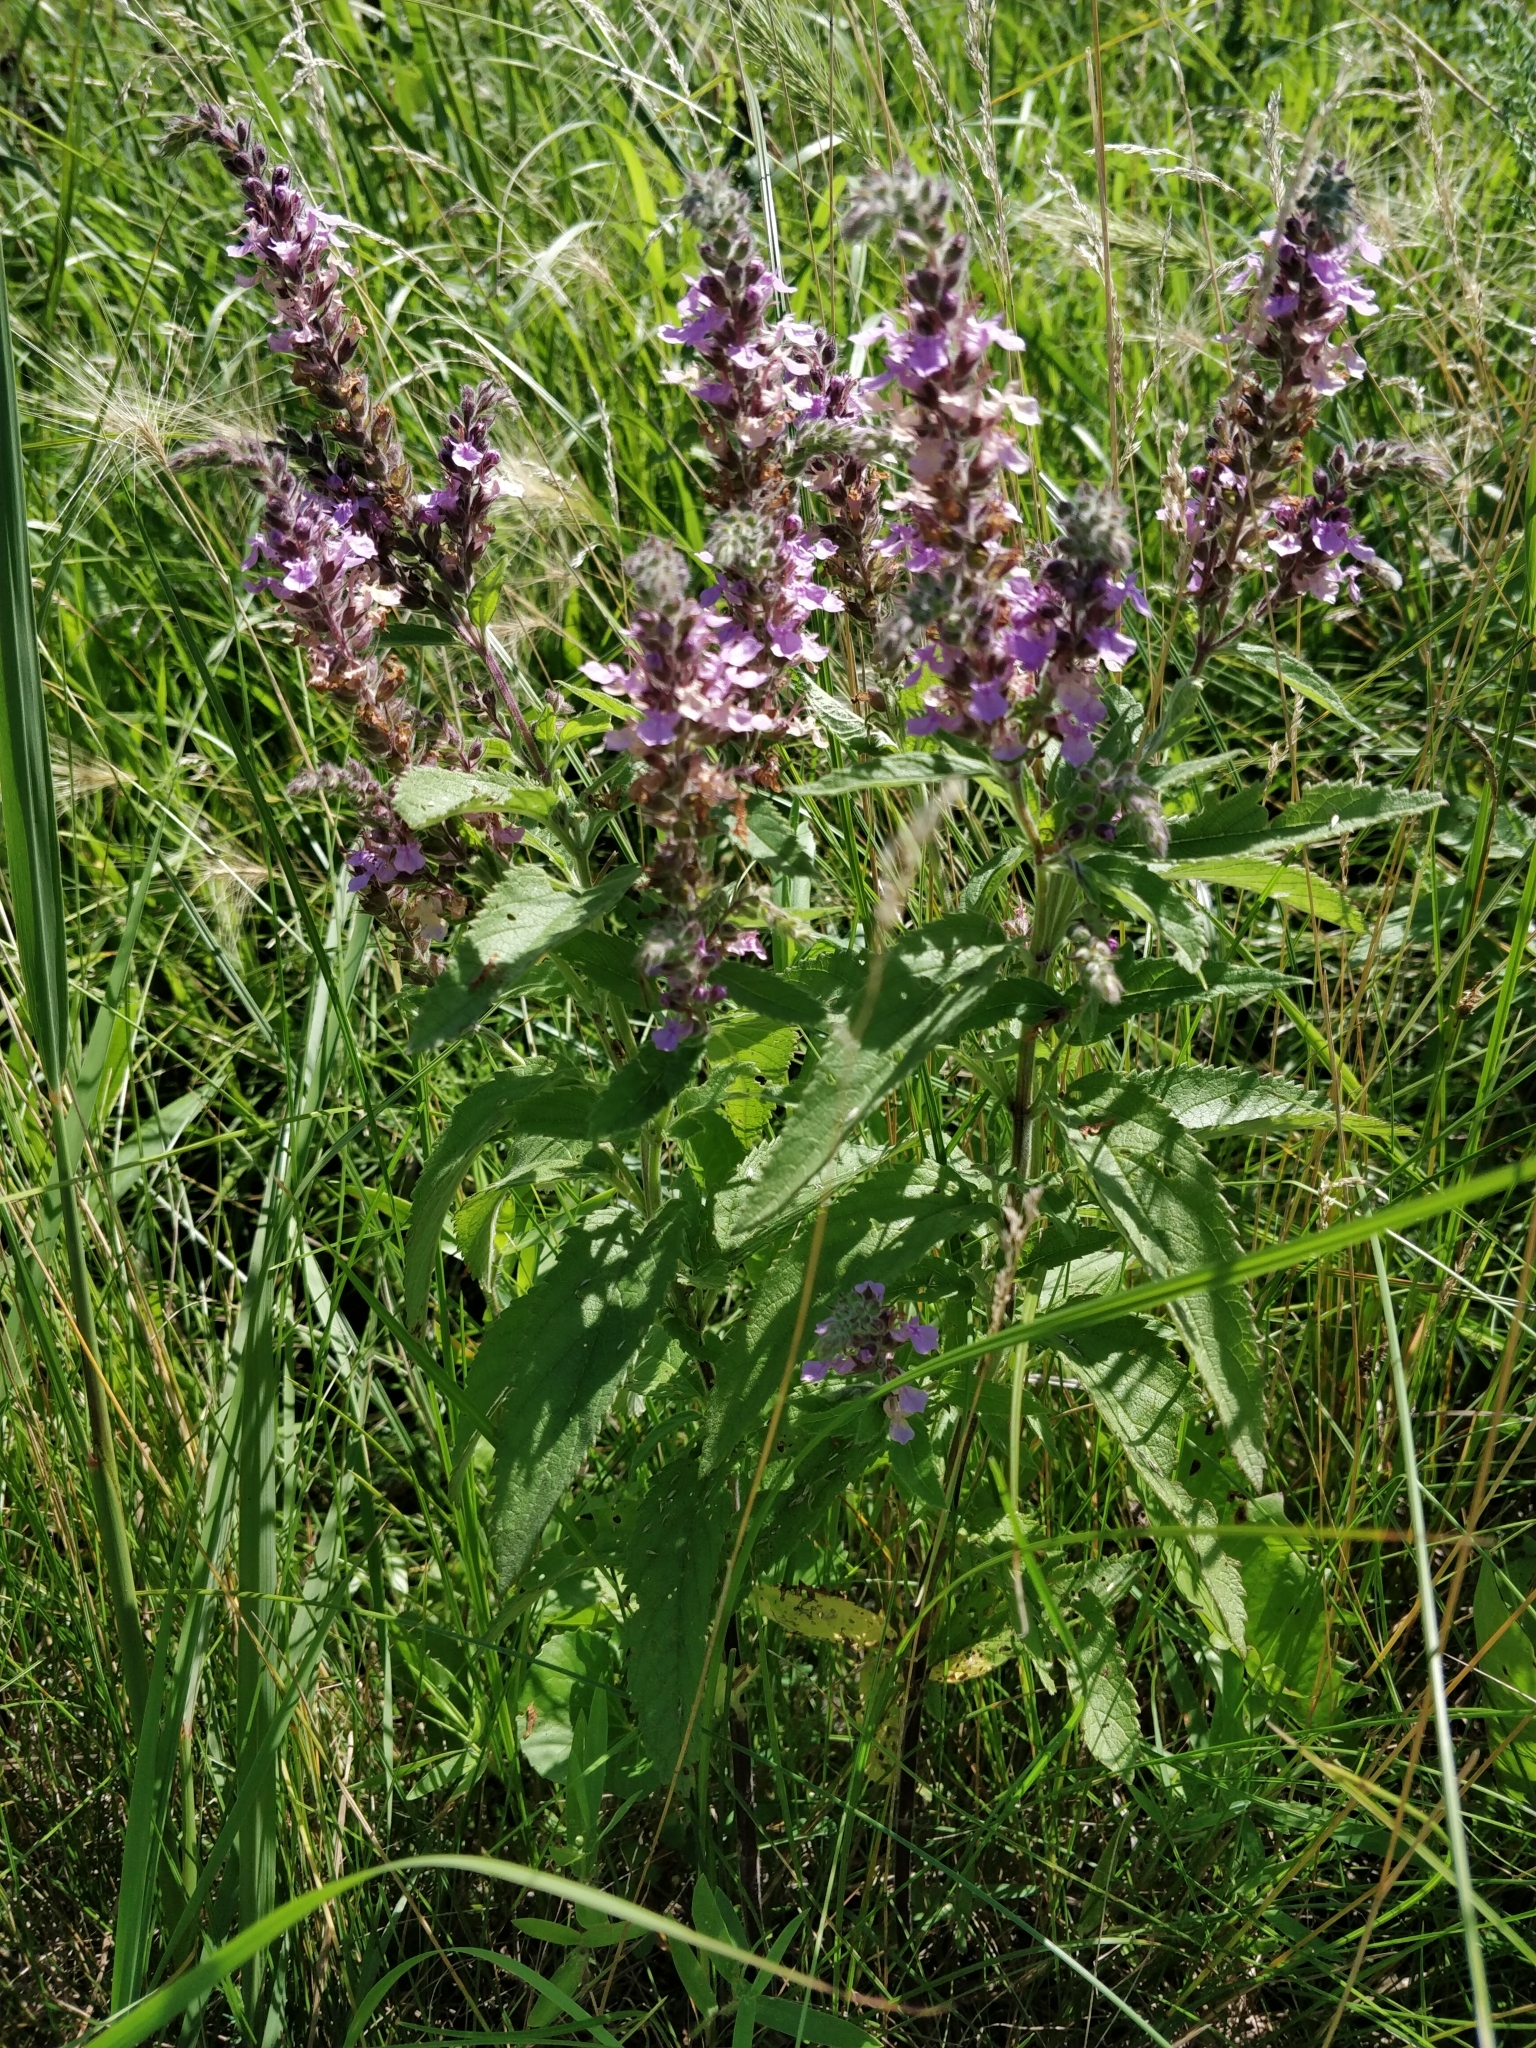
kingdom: Plantae
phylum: Tracheophyta
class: Magnoliopsida
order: Lamiales
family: Lamiaceae
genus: Teucrium
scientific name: Teucrium canadense
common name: American germander
